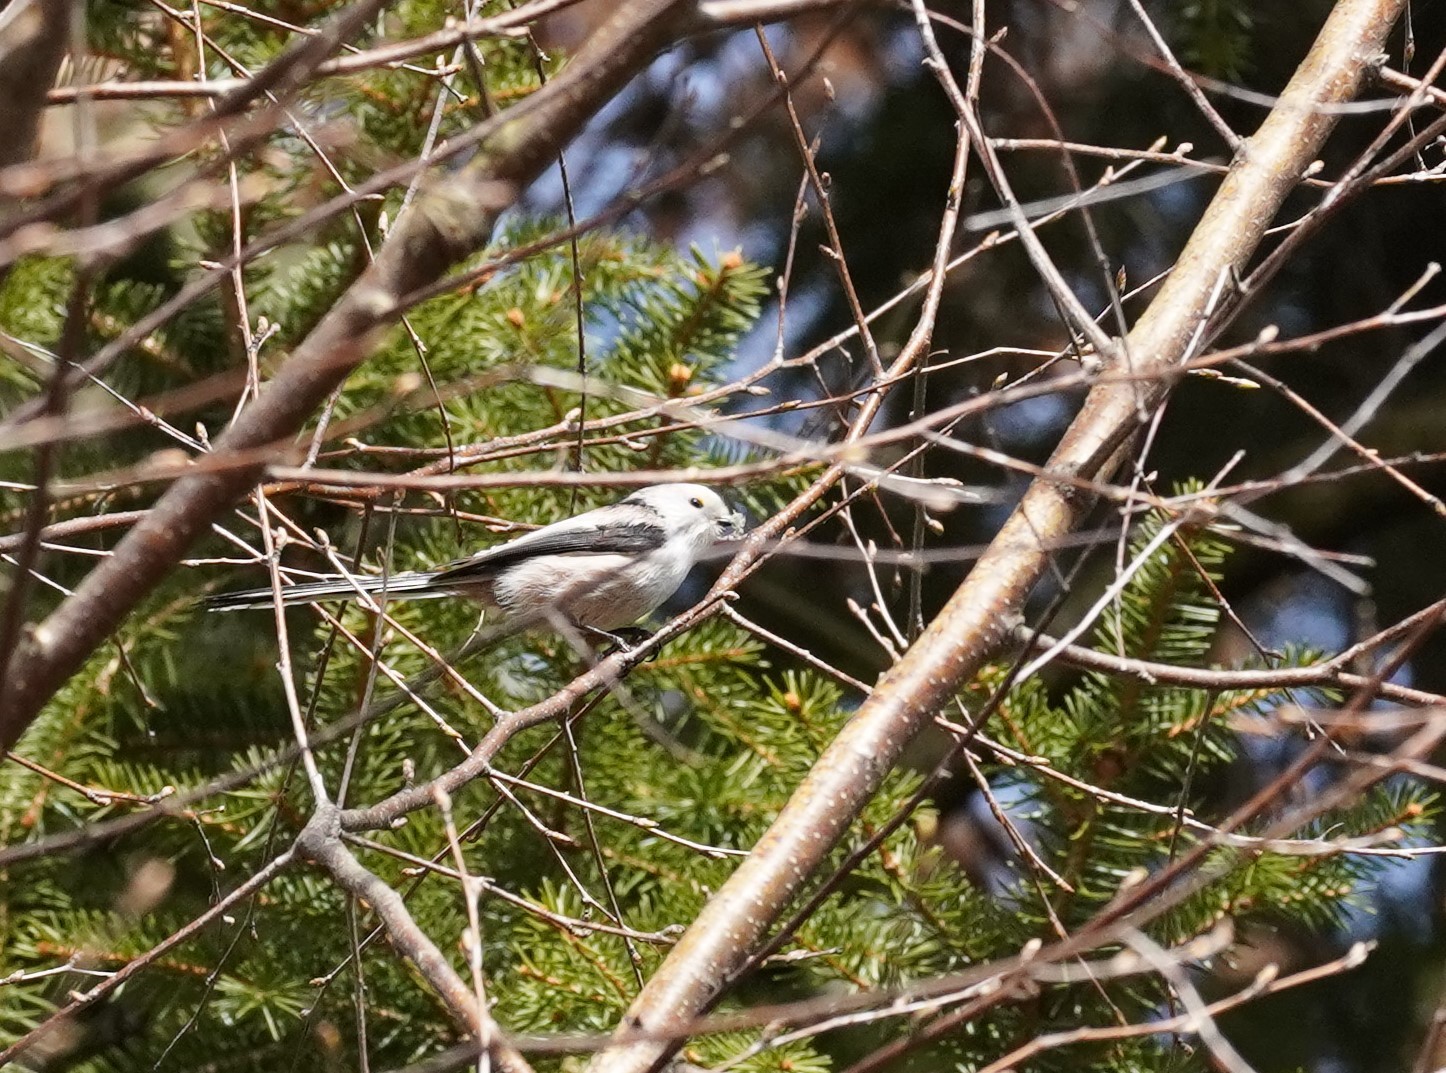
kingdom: Animalia
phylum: Chordata
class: Aves
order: Passeriformes
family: Aegithalidae
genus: Aegithalos
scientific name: Aegithalos caudatus
